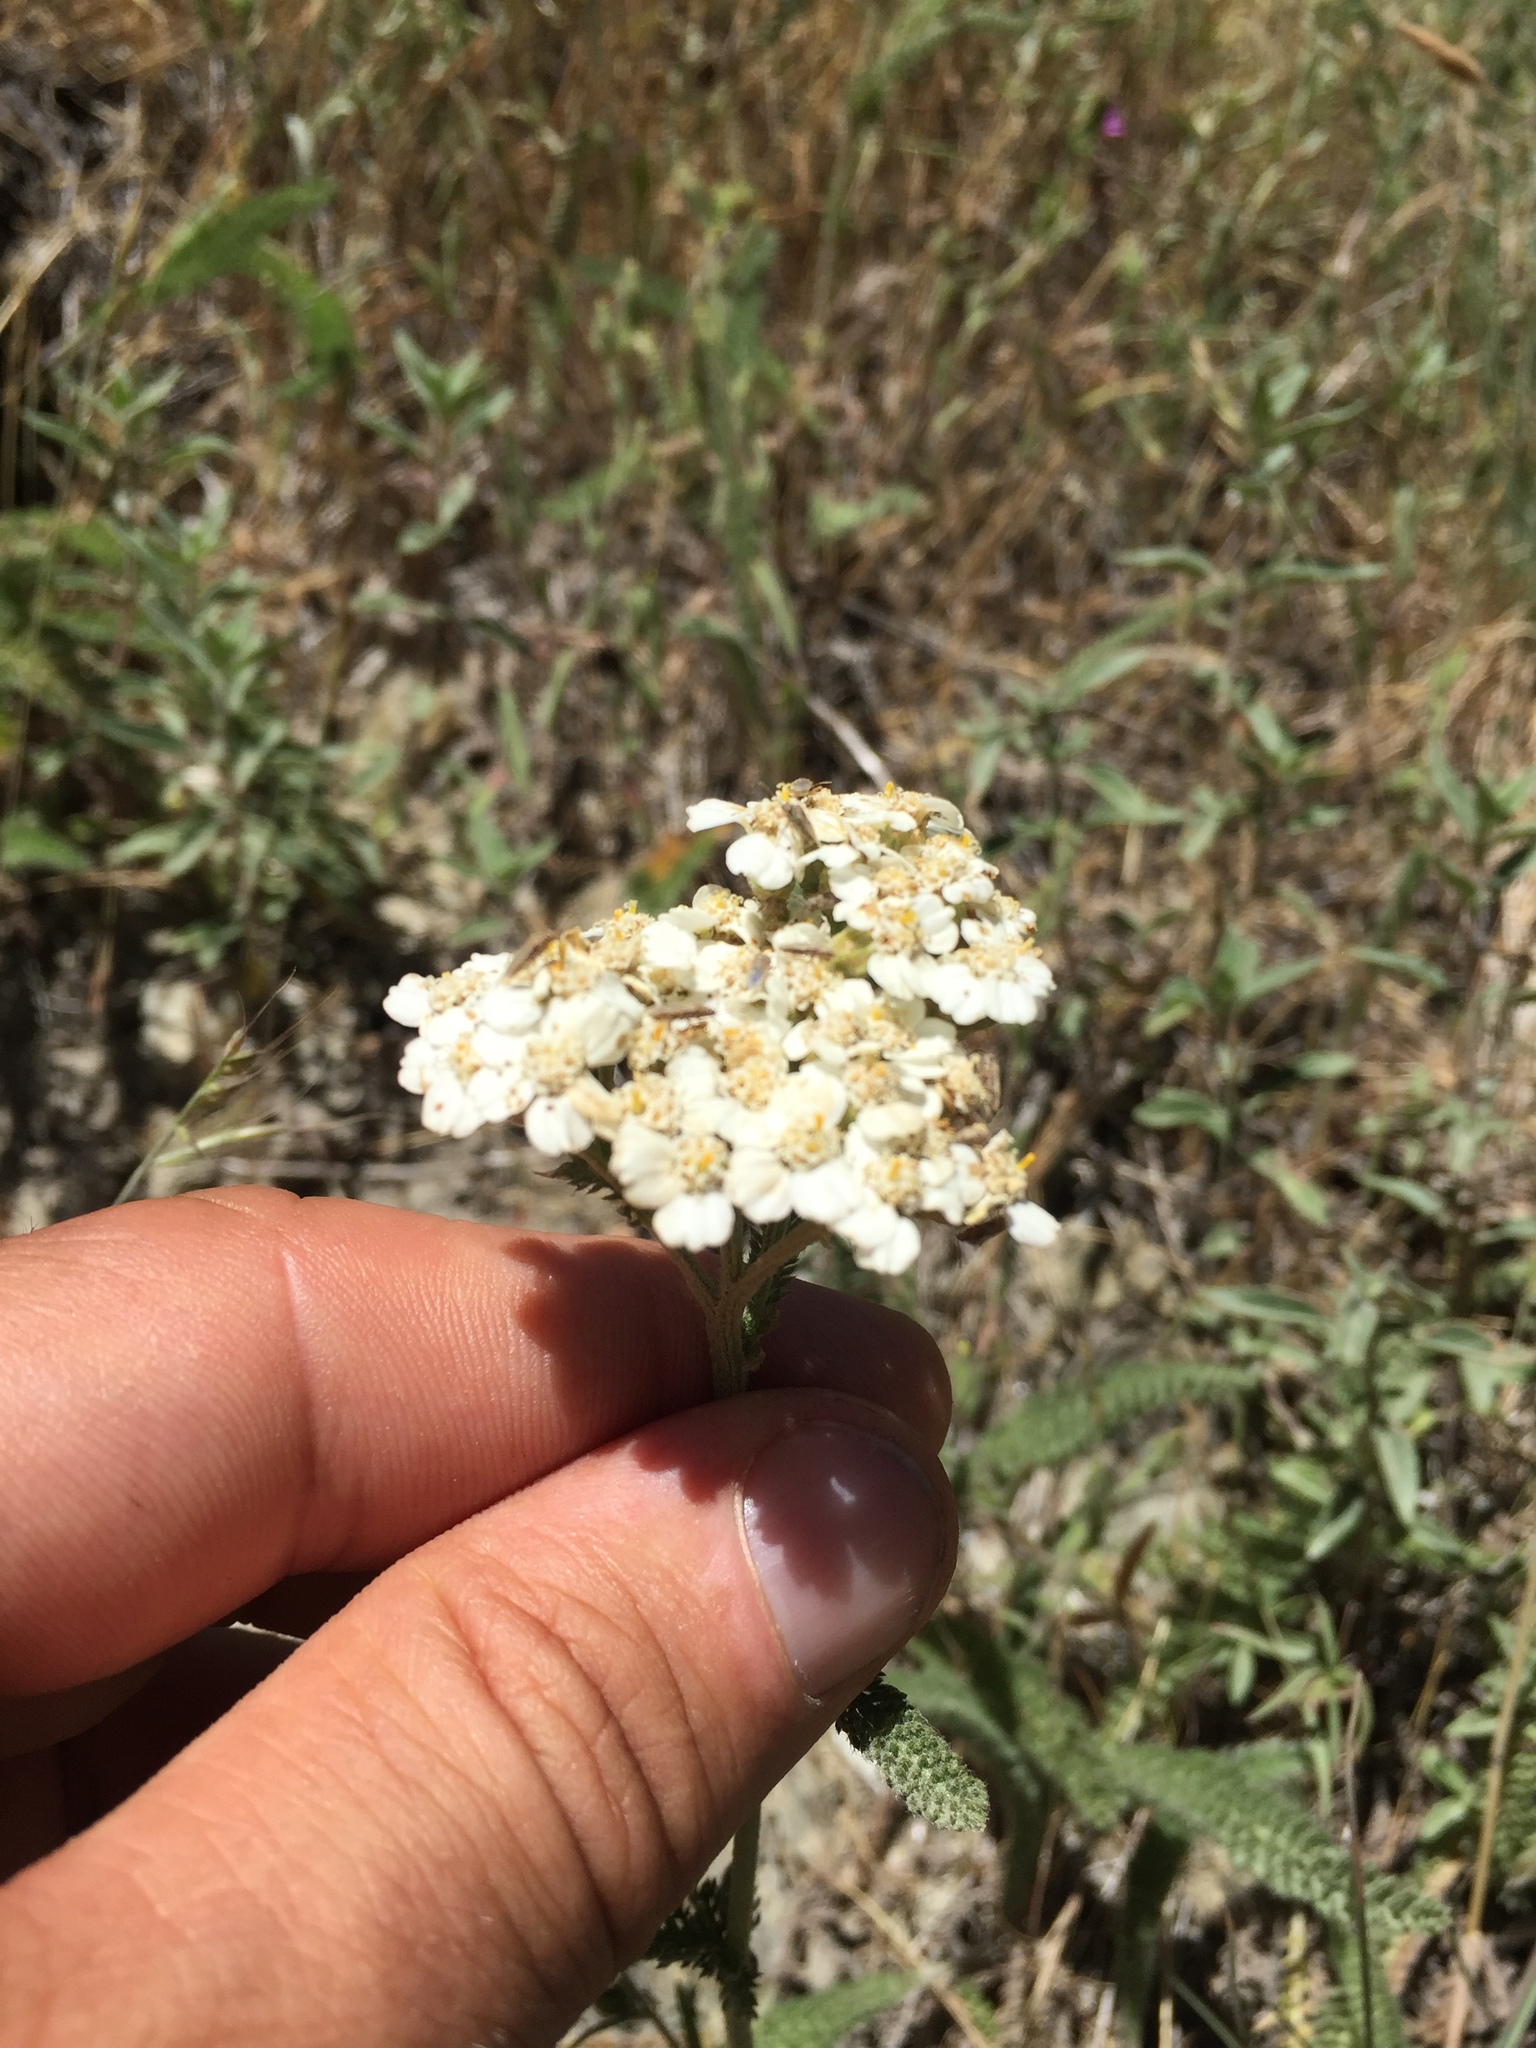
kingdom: Plantae
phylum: Tracheophyta
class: Magnoliopsida
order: Asterales
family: Asteraceae
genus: Achillea
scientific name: Achillea millefolium
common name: Yarrow
